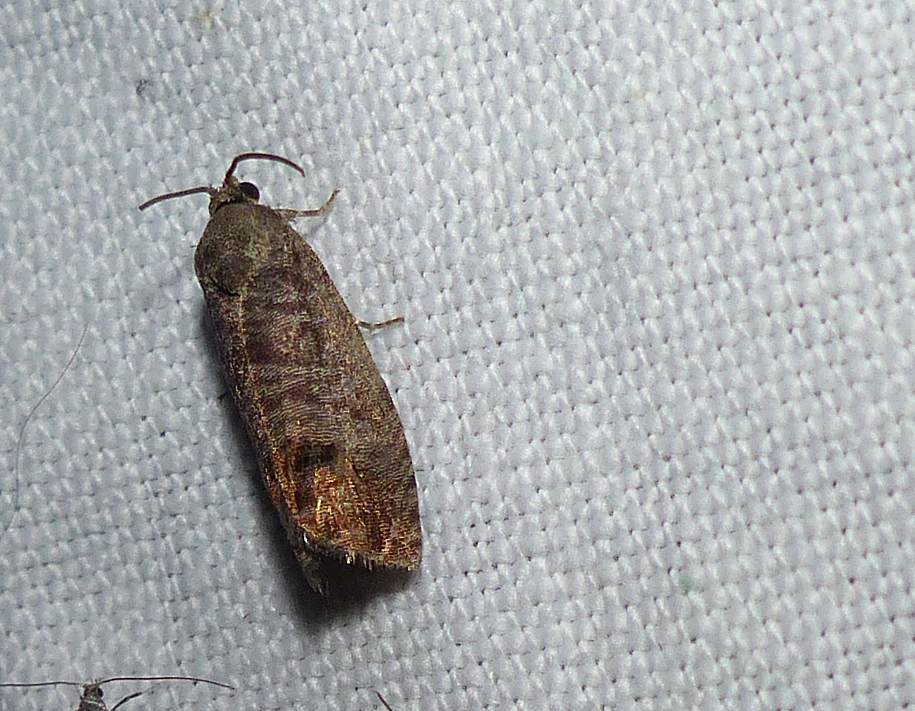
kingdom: Animalia
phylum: Arthropoda
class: Insecta
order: Lepidoptera
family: Tortricidae
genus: Cydia
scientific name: Cydia pomonella
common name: Codling moth
